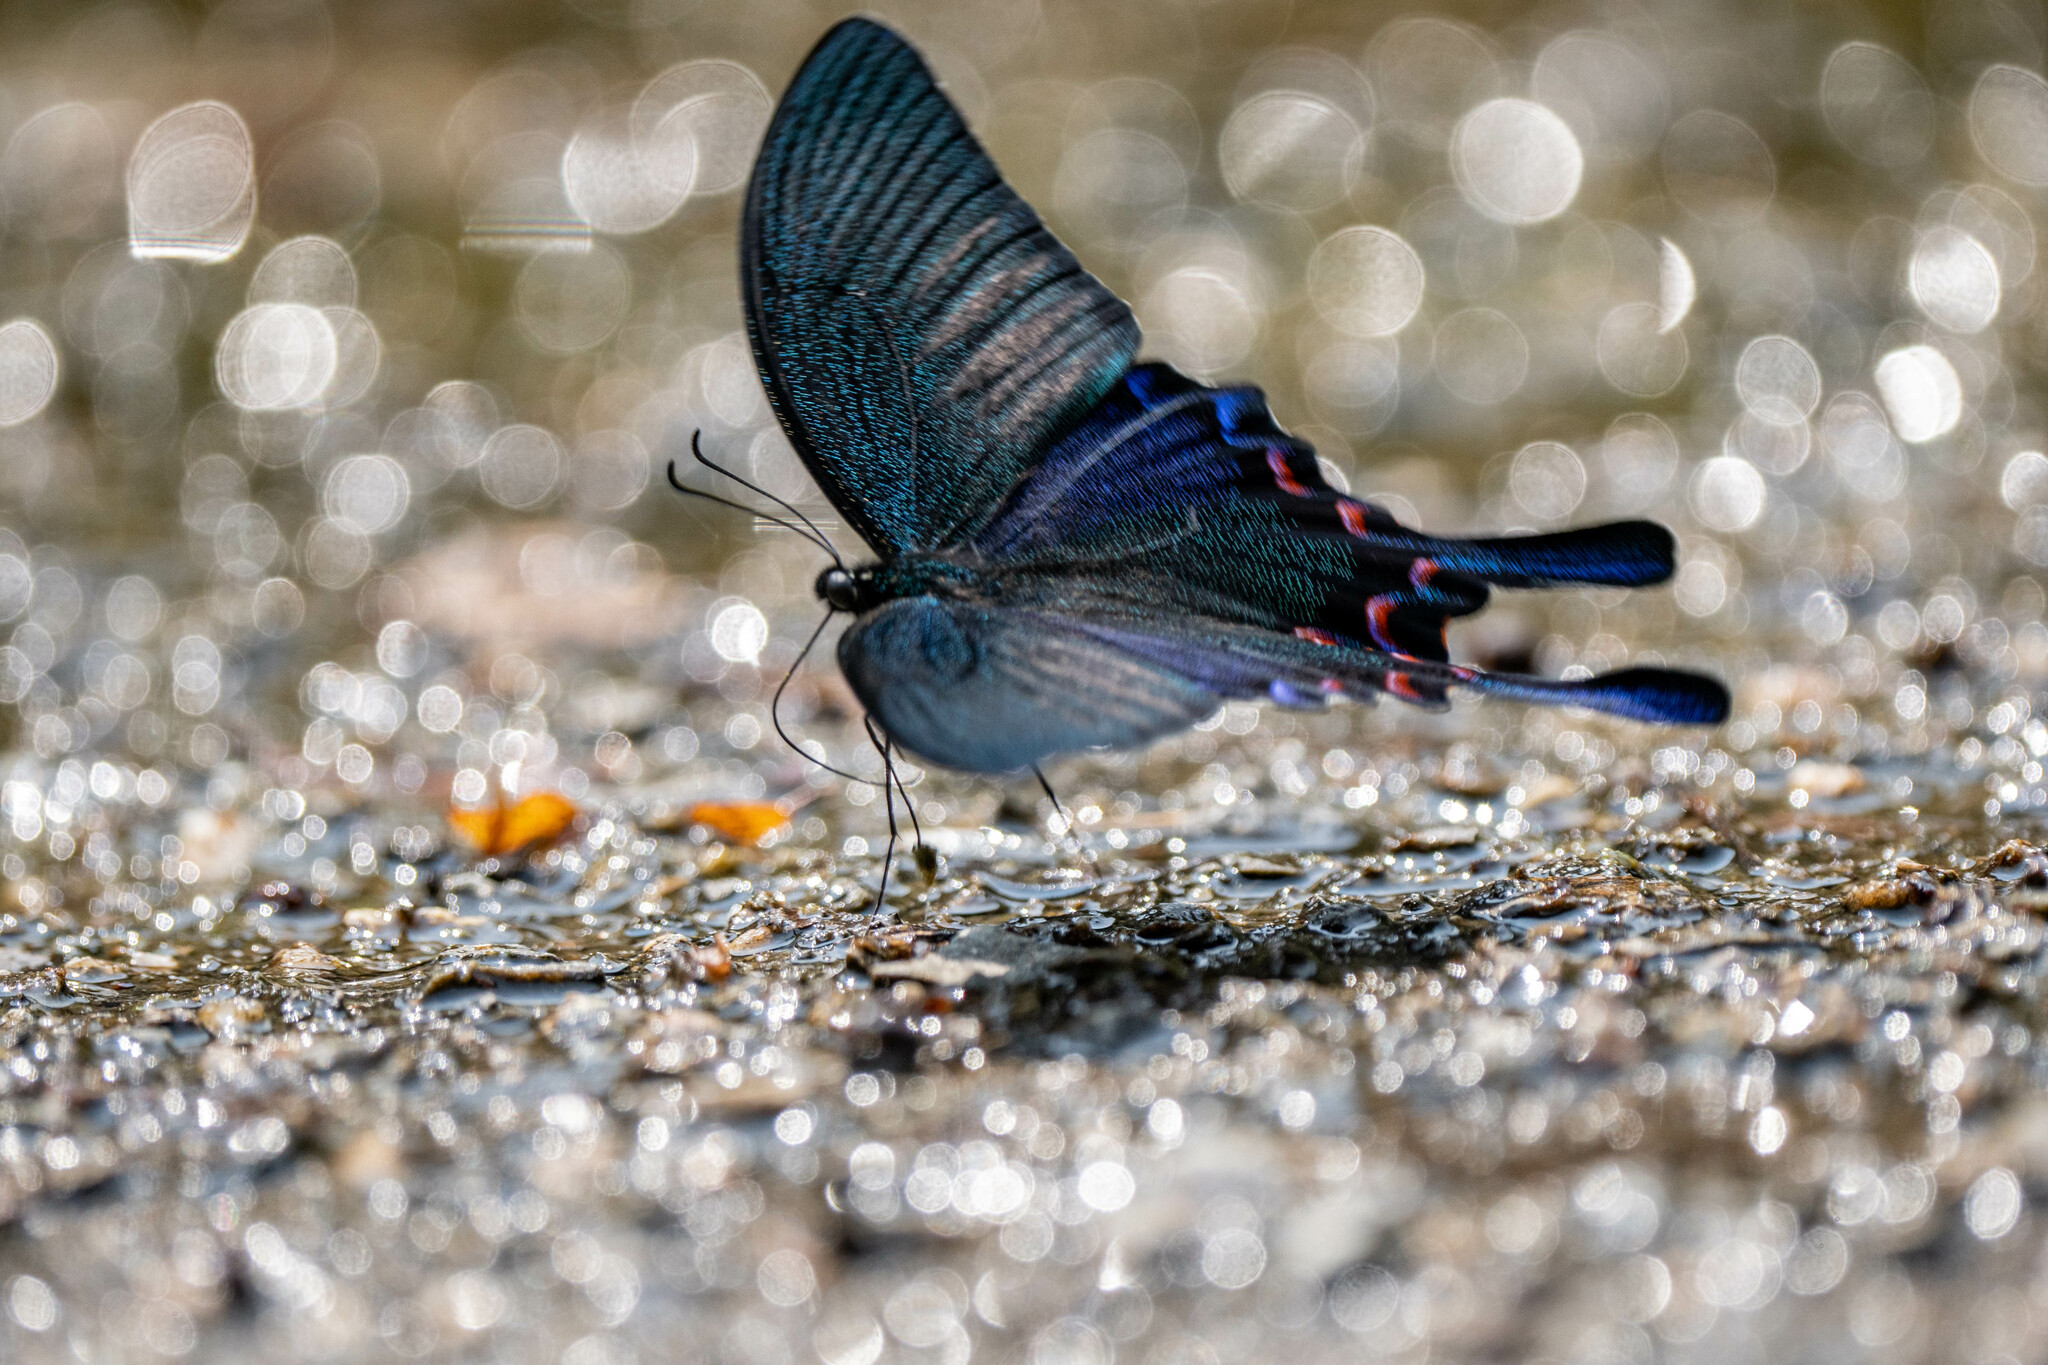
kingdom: Animalia
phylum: Arthropoda
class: Insecta
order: Lepidoptera
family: Papilionidae
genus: Papilio
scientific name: Papilio bianor
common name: Common peacock
